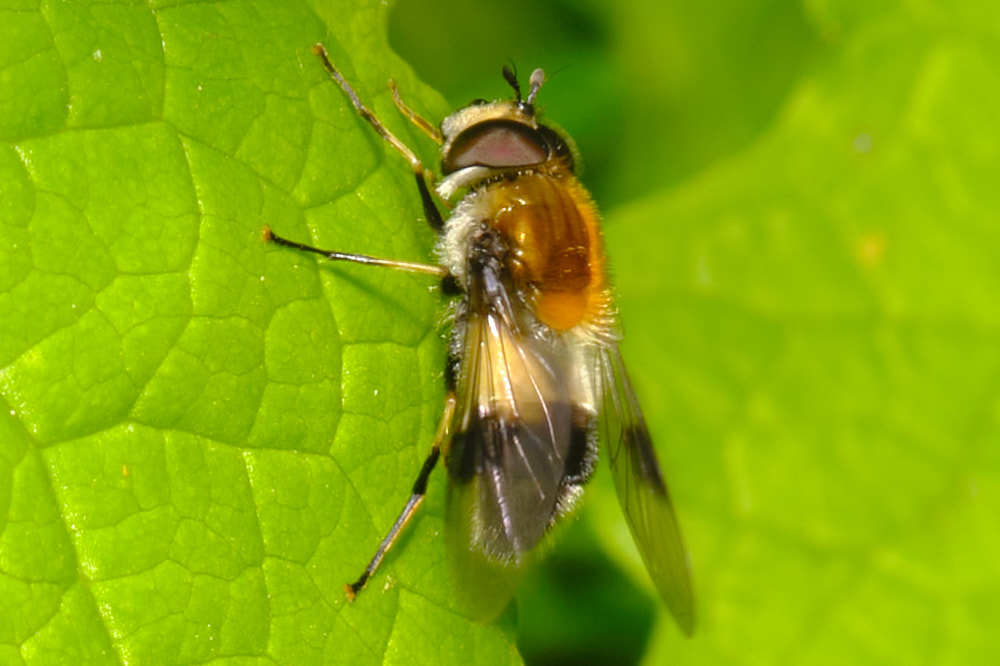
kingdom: Animalia
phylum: Arthropoda
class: Insecta
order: Diptera
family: Syrphidae
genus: Leucozona
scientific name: Leucozona lucorum
